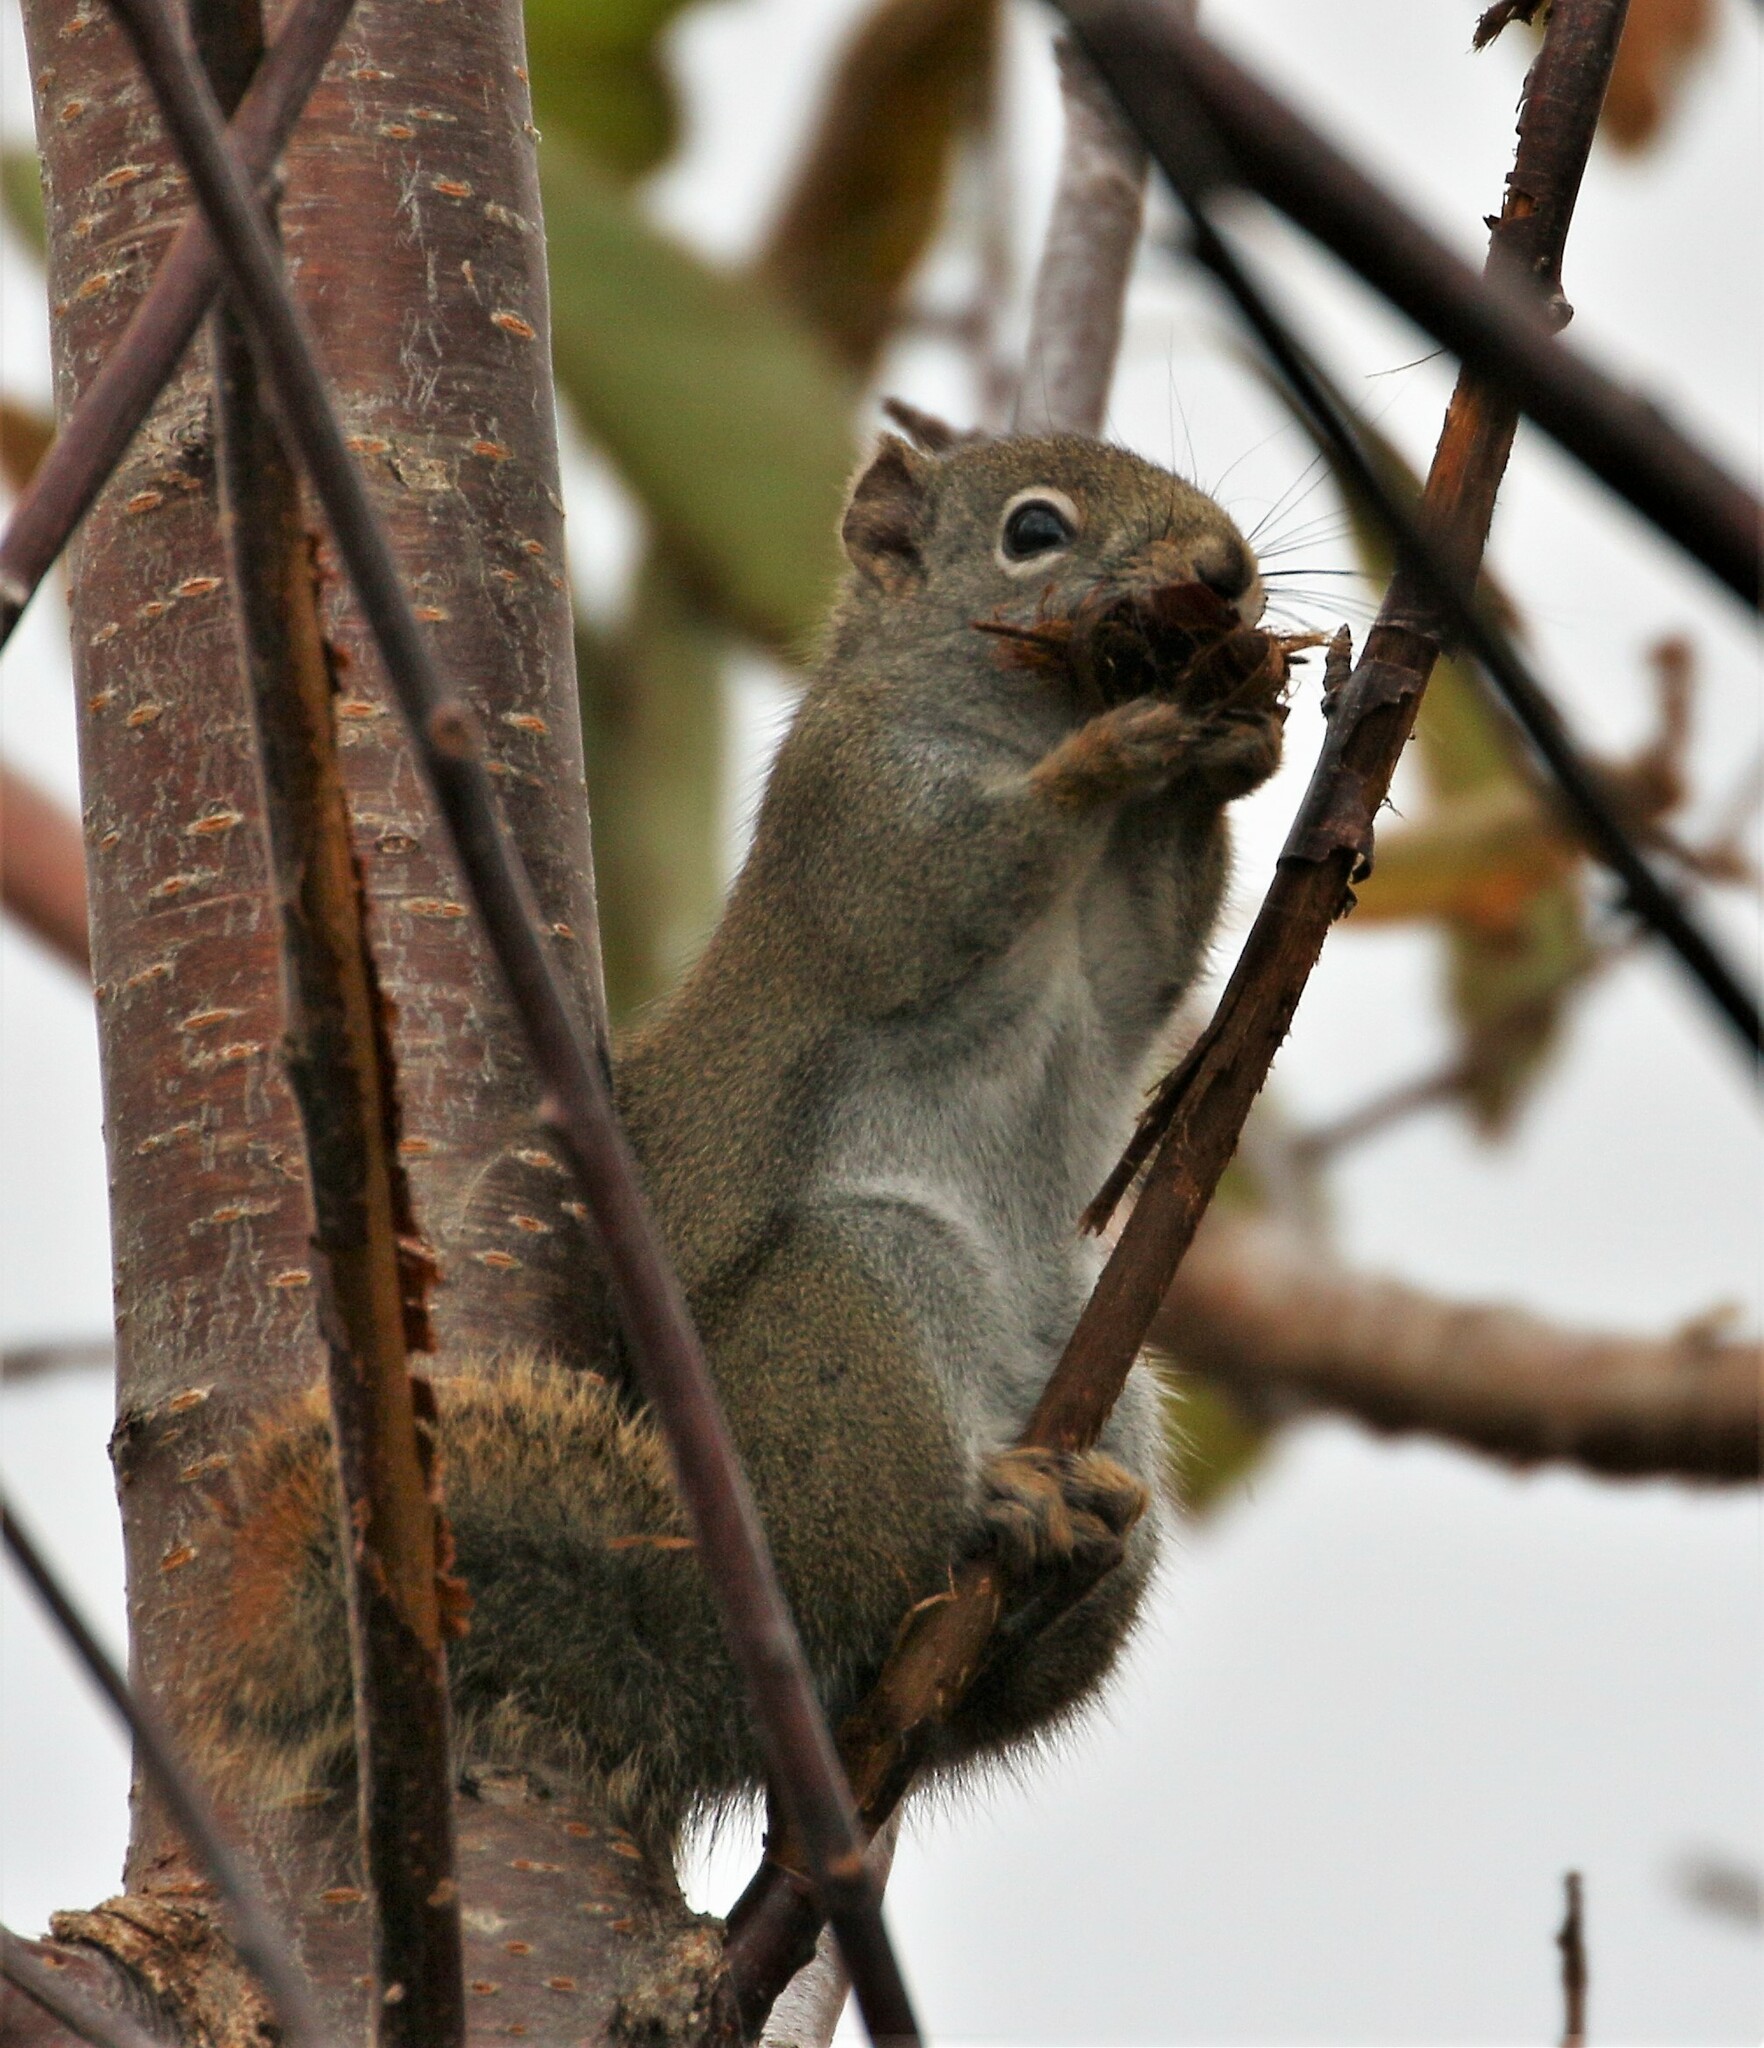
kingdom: Animalia
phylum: Chordata
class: Mammalia
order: Rodentia
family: Sciuridae
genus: Tamiasciurus
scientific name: Tamiasciurus hudsonicus
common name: Red squirrel
